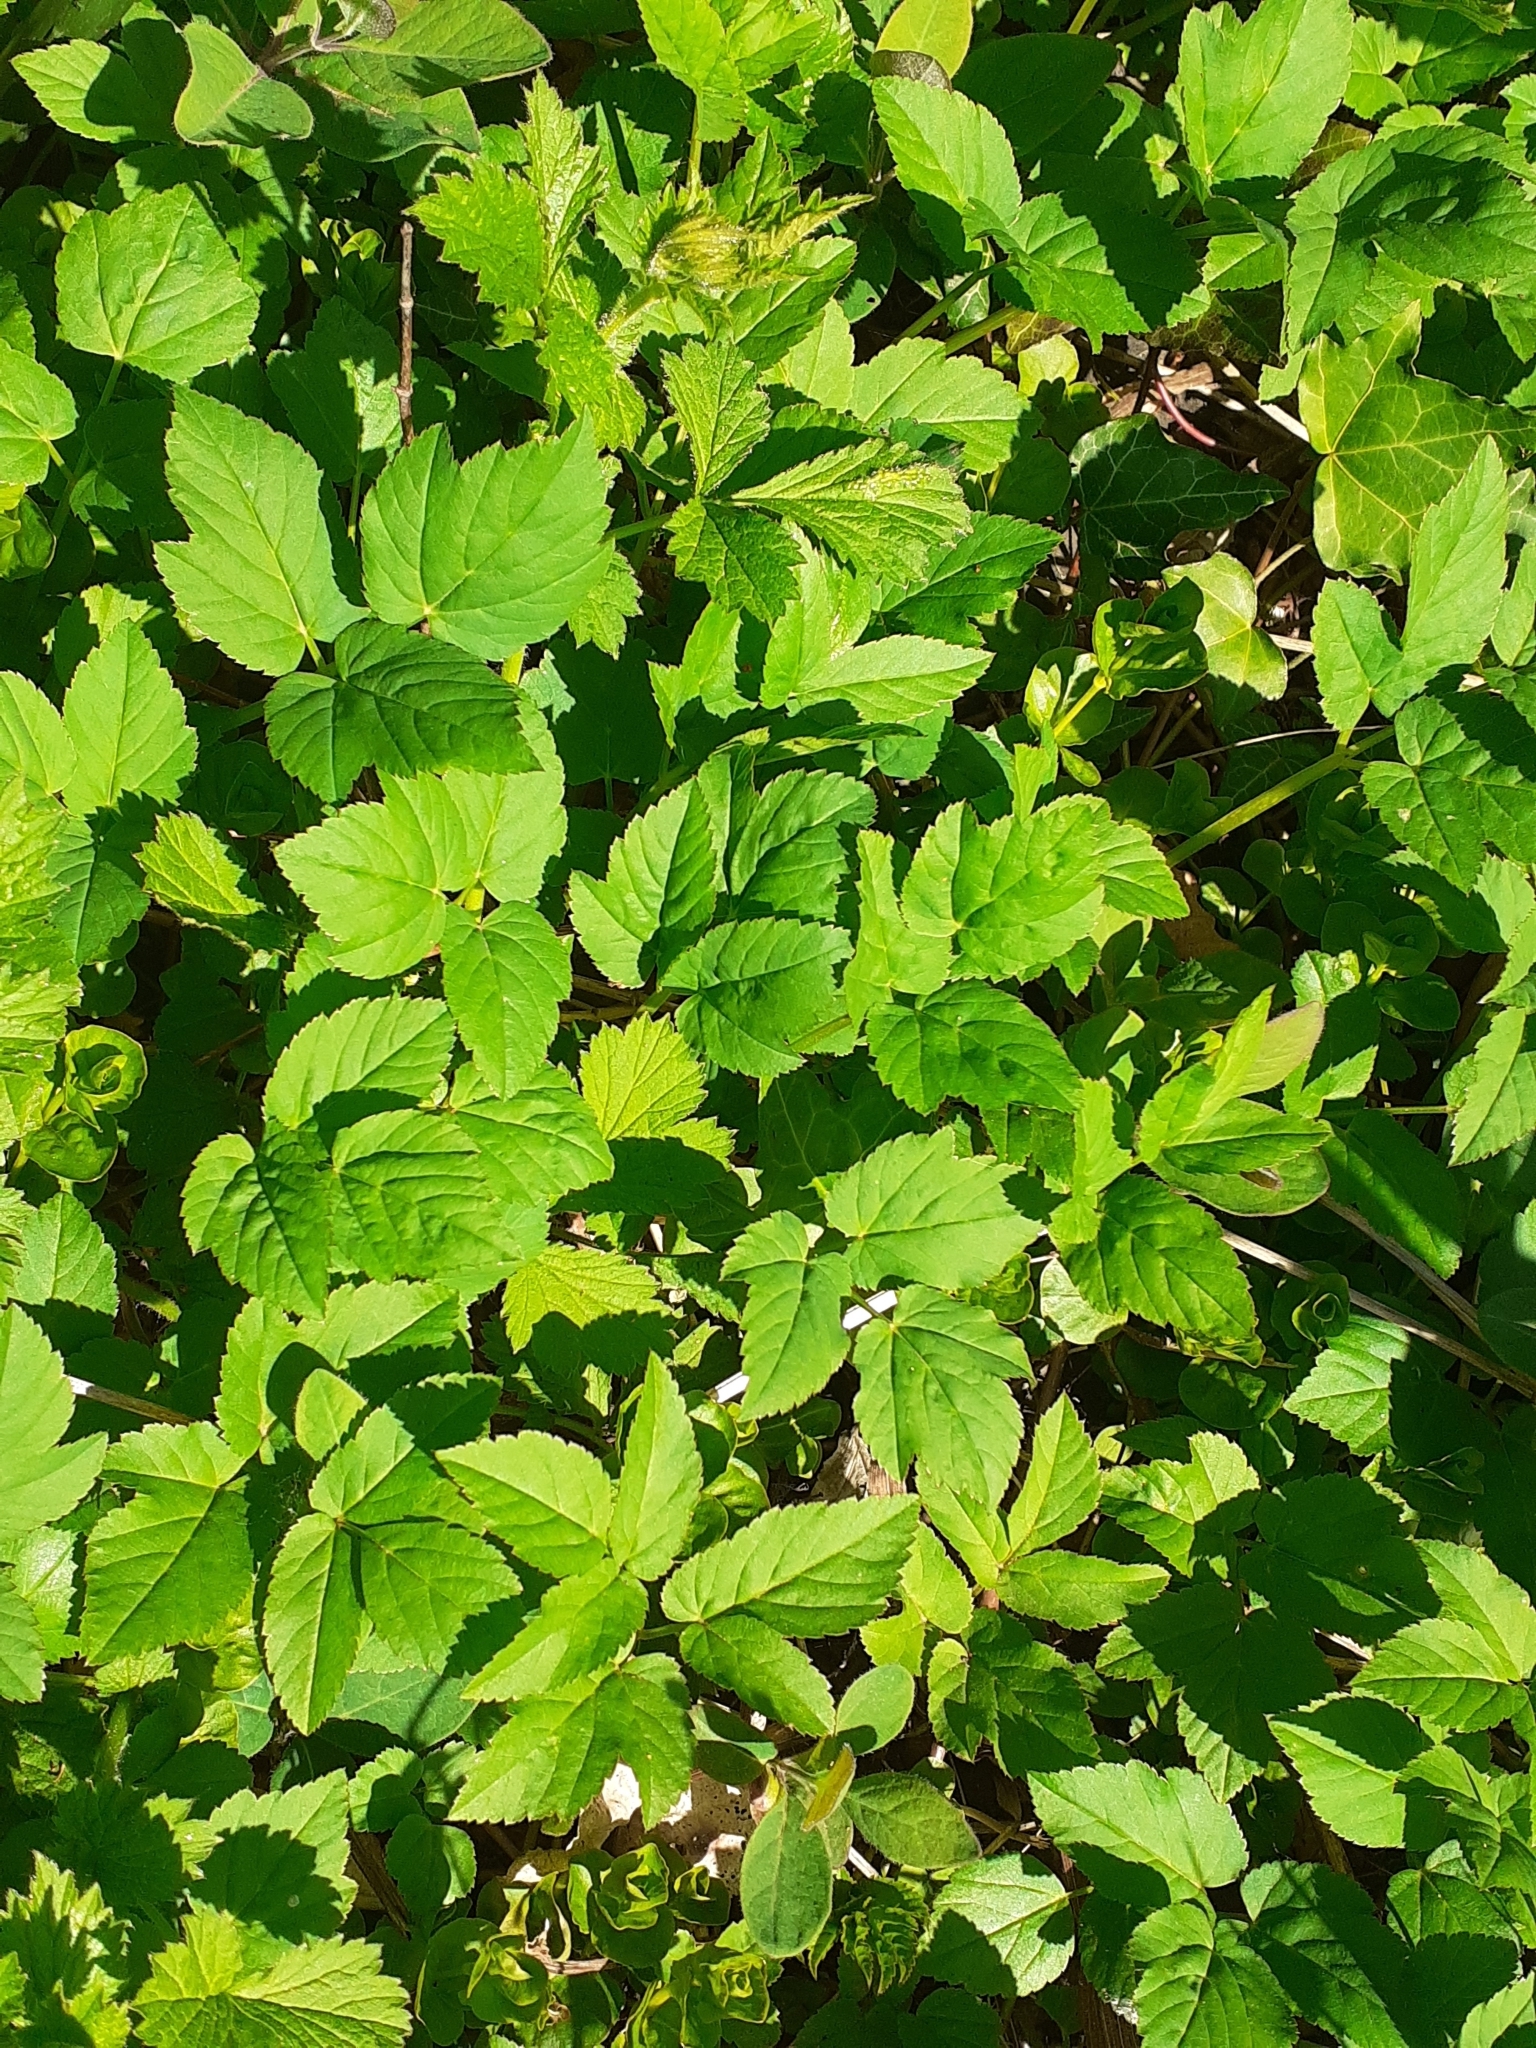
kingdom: Plantae
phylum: Tracheophyta
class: Magnoliopsida
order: Apiales
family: Apiaceae
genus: Aegopodium
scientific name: Aegopodium podagraria
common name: Ground-elder
